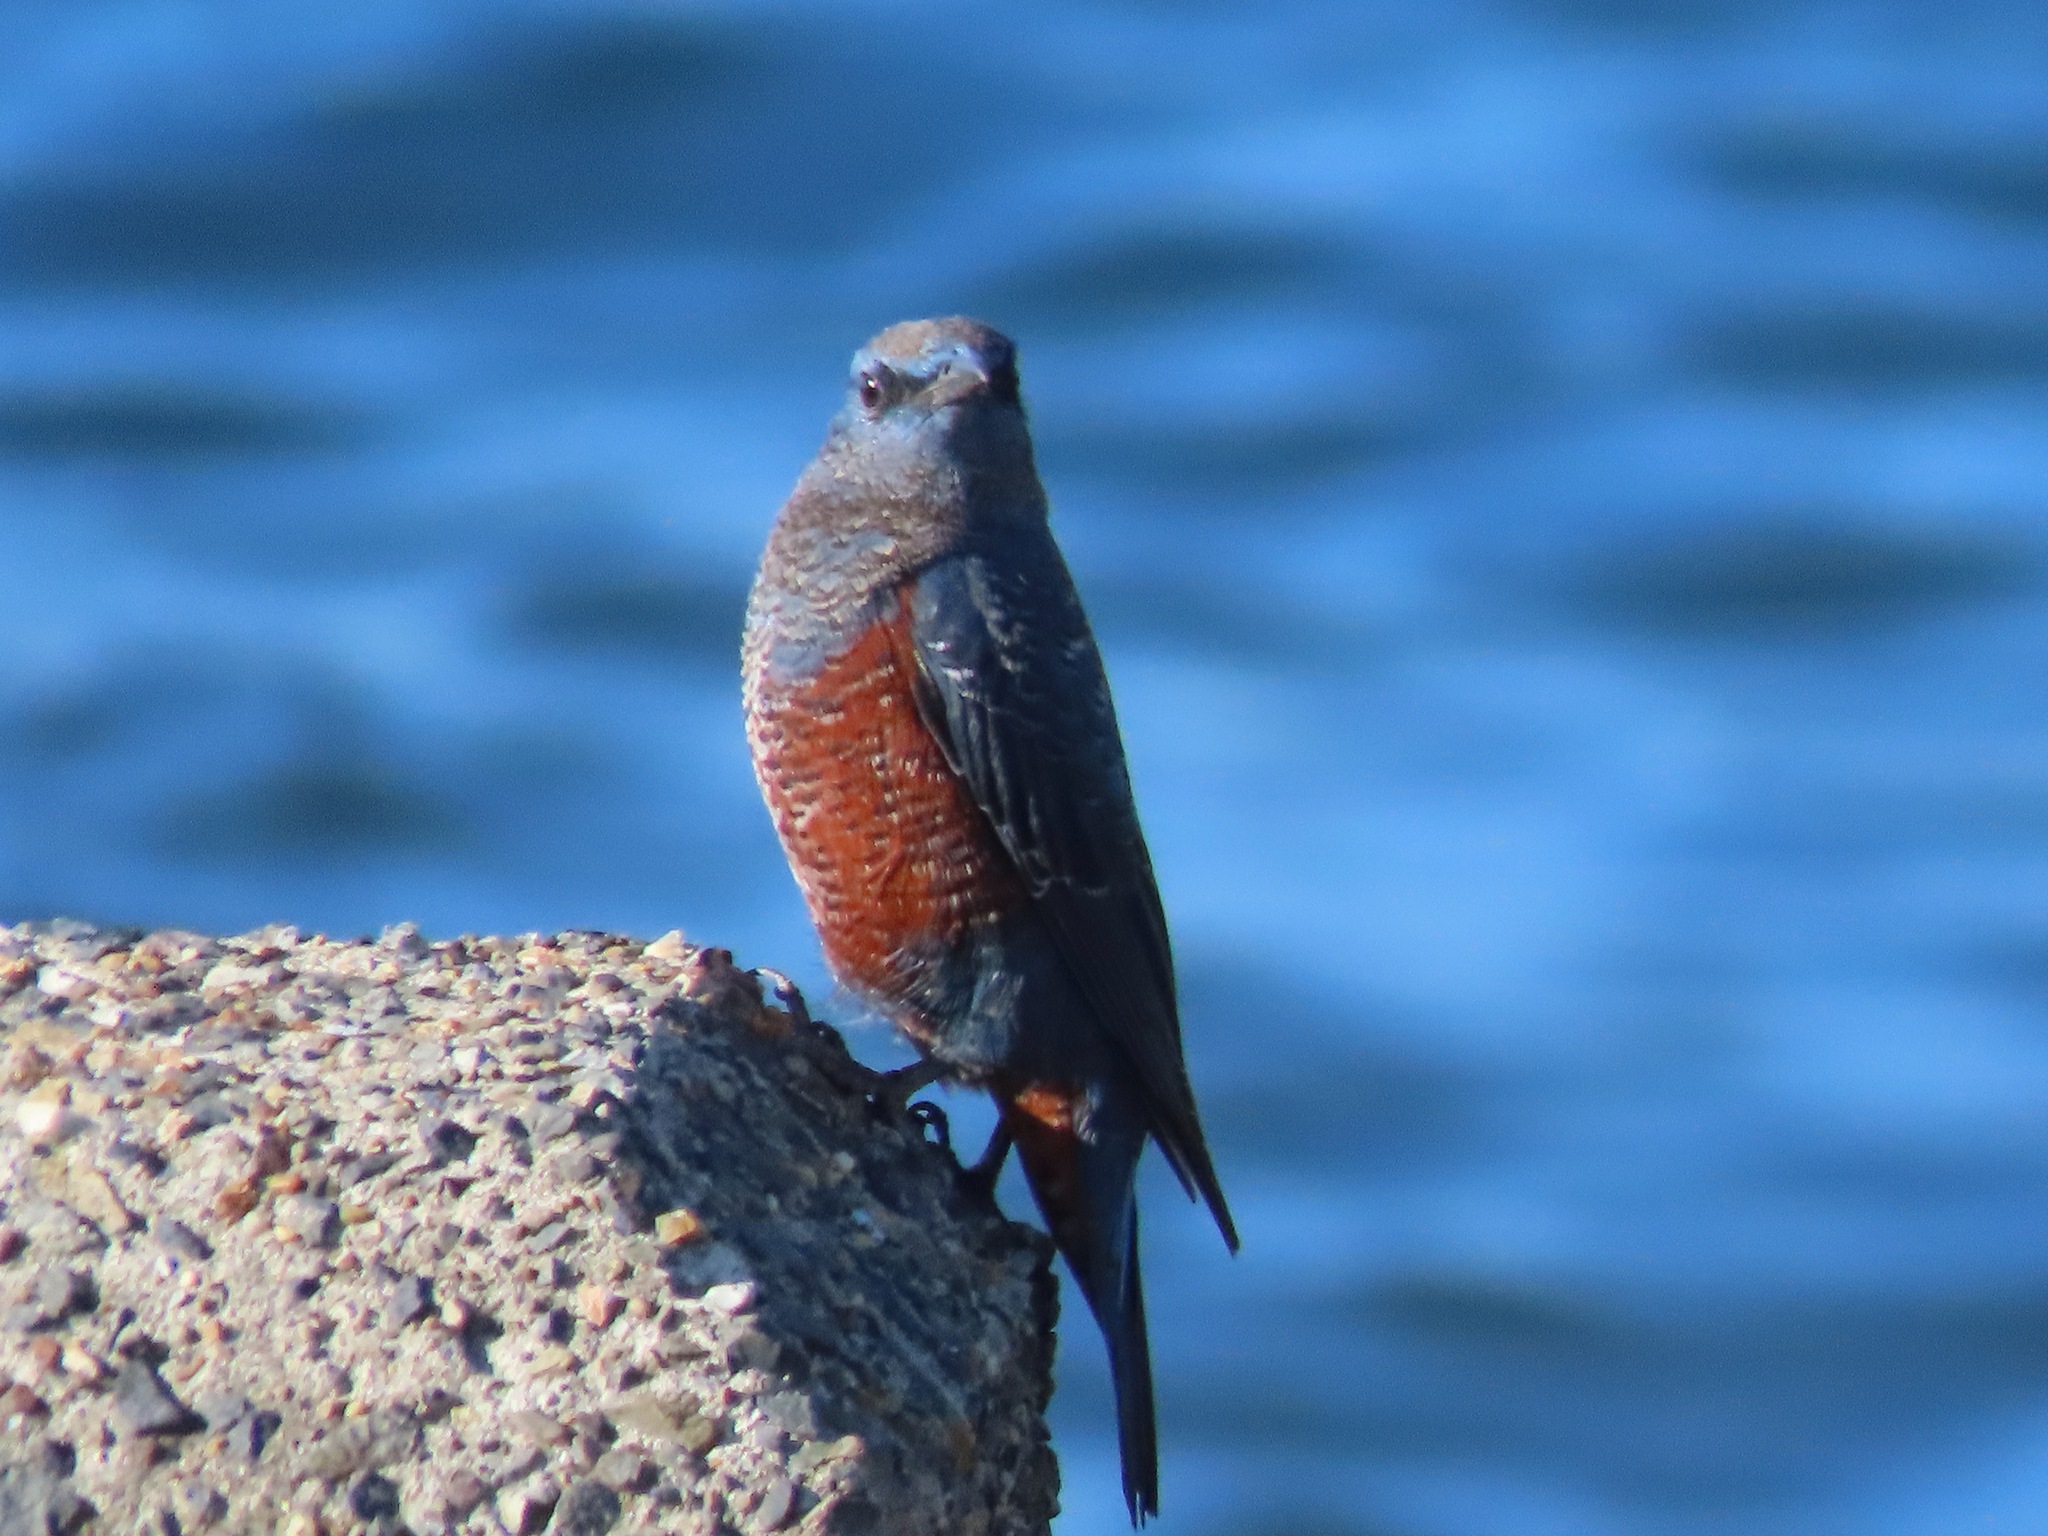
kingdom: Animalia
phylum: Chordata
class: Aves
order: Passeriformes
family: Muscicapidae
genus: Monticola
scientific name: Monticola solitarius
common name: Blue rock thrush
